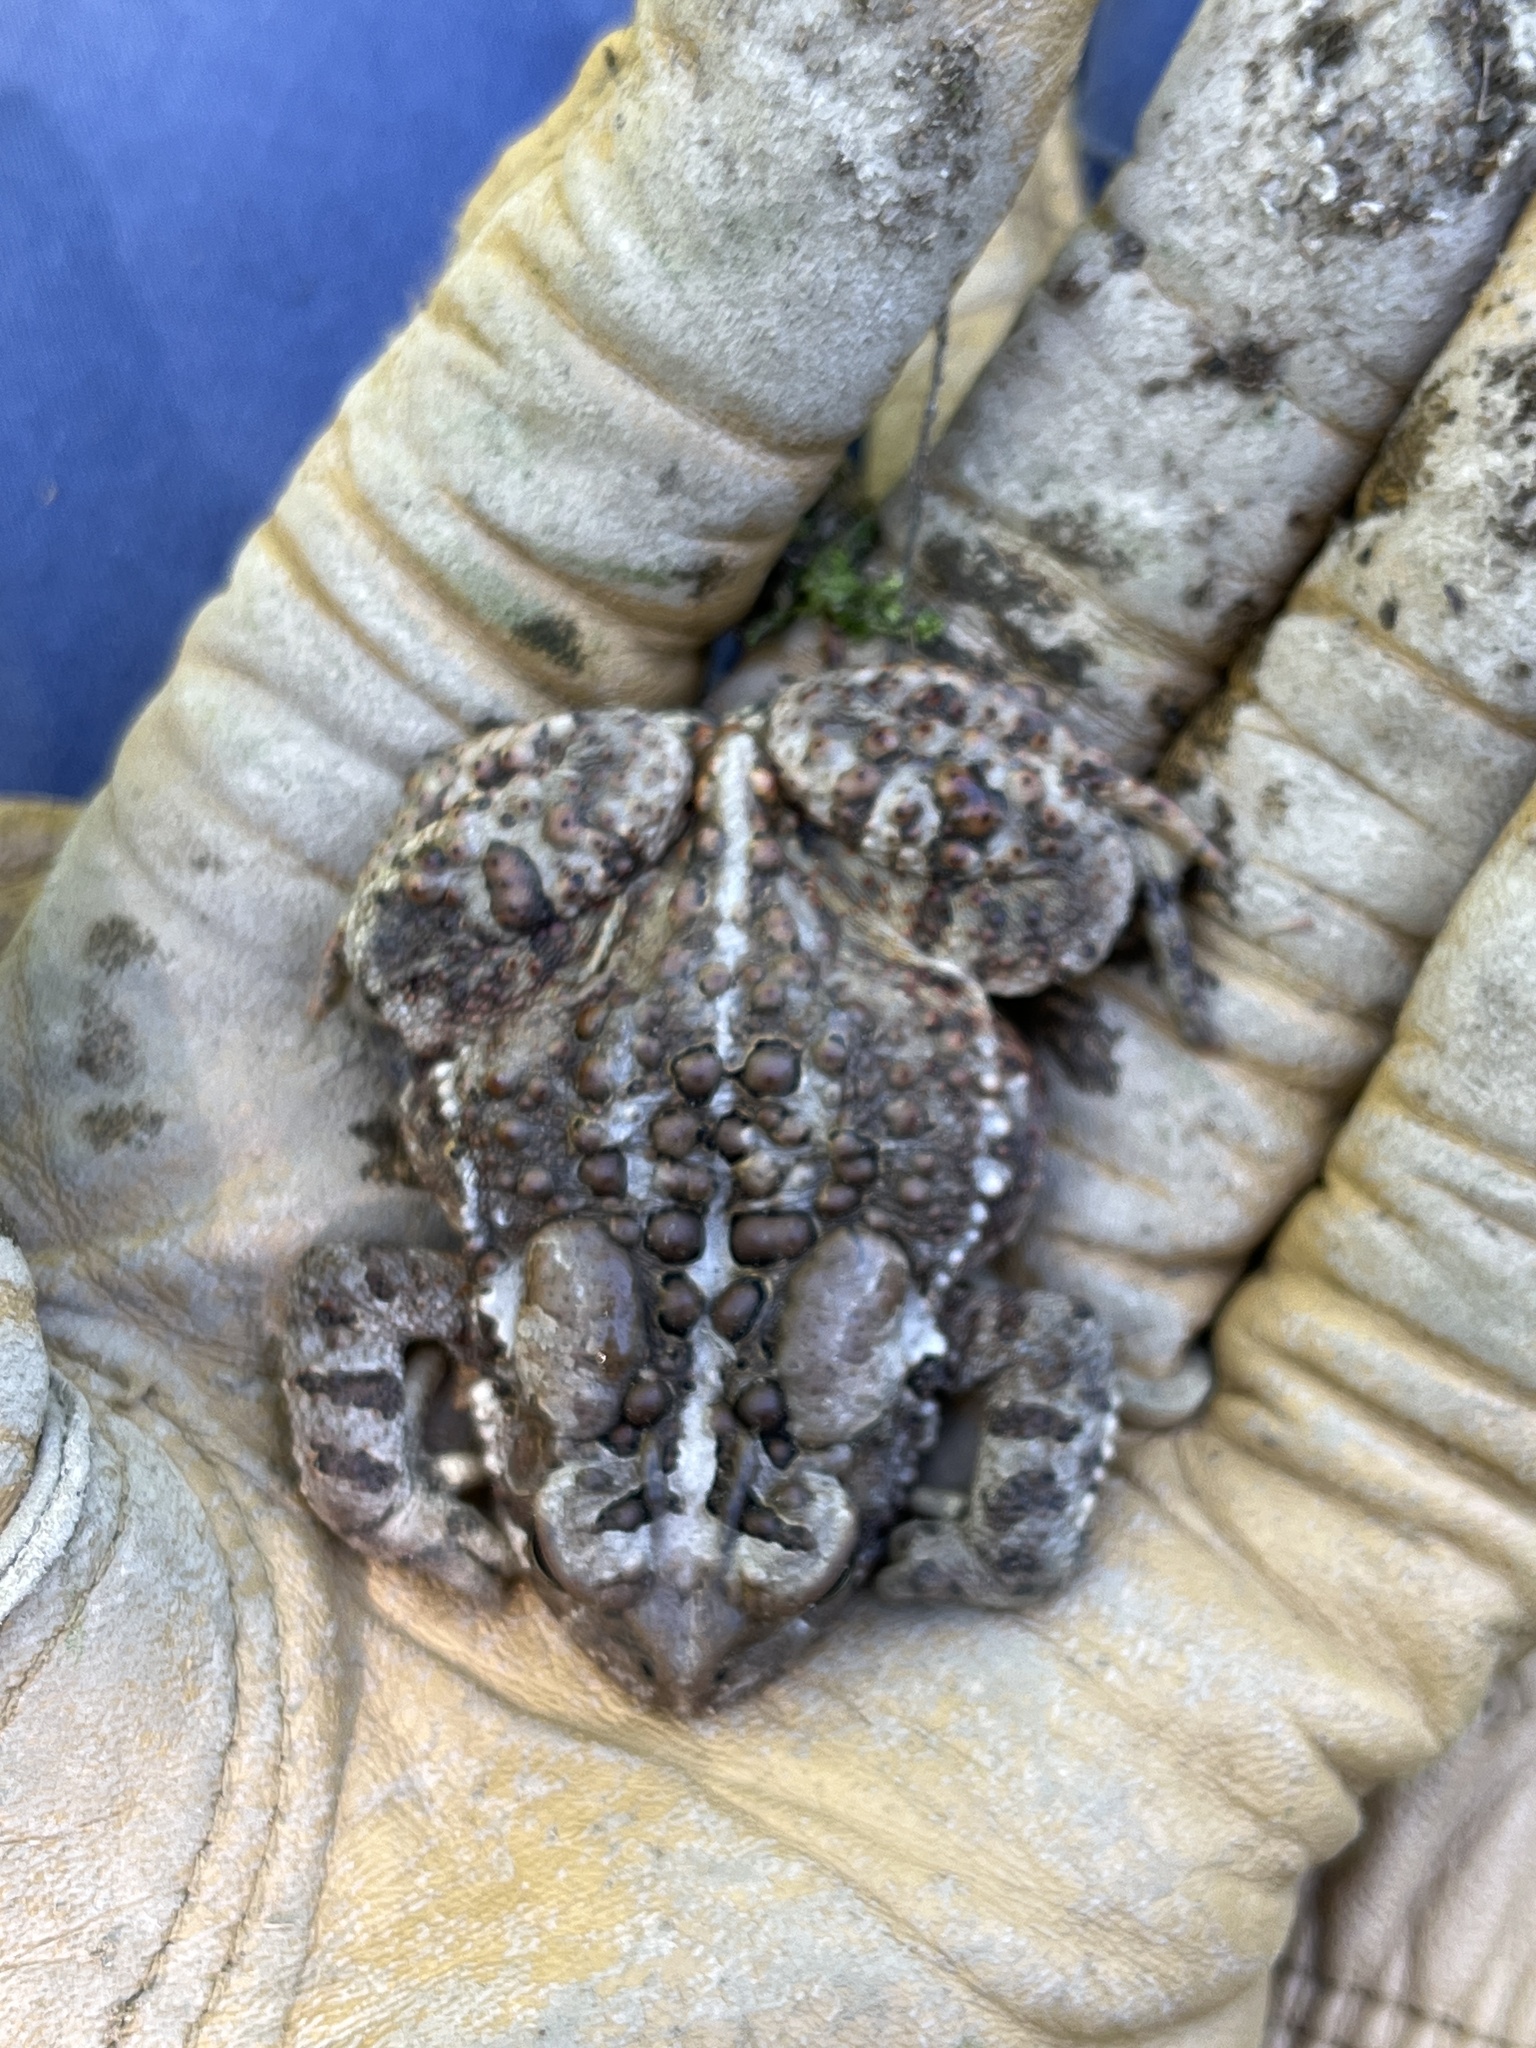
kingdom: Animalia
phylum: Chordata
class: Amphibia
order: Anura
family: Bufonidae
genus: Anaxyrus
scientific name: Anaxyrus americanus
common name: American toad
